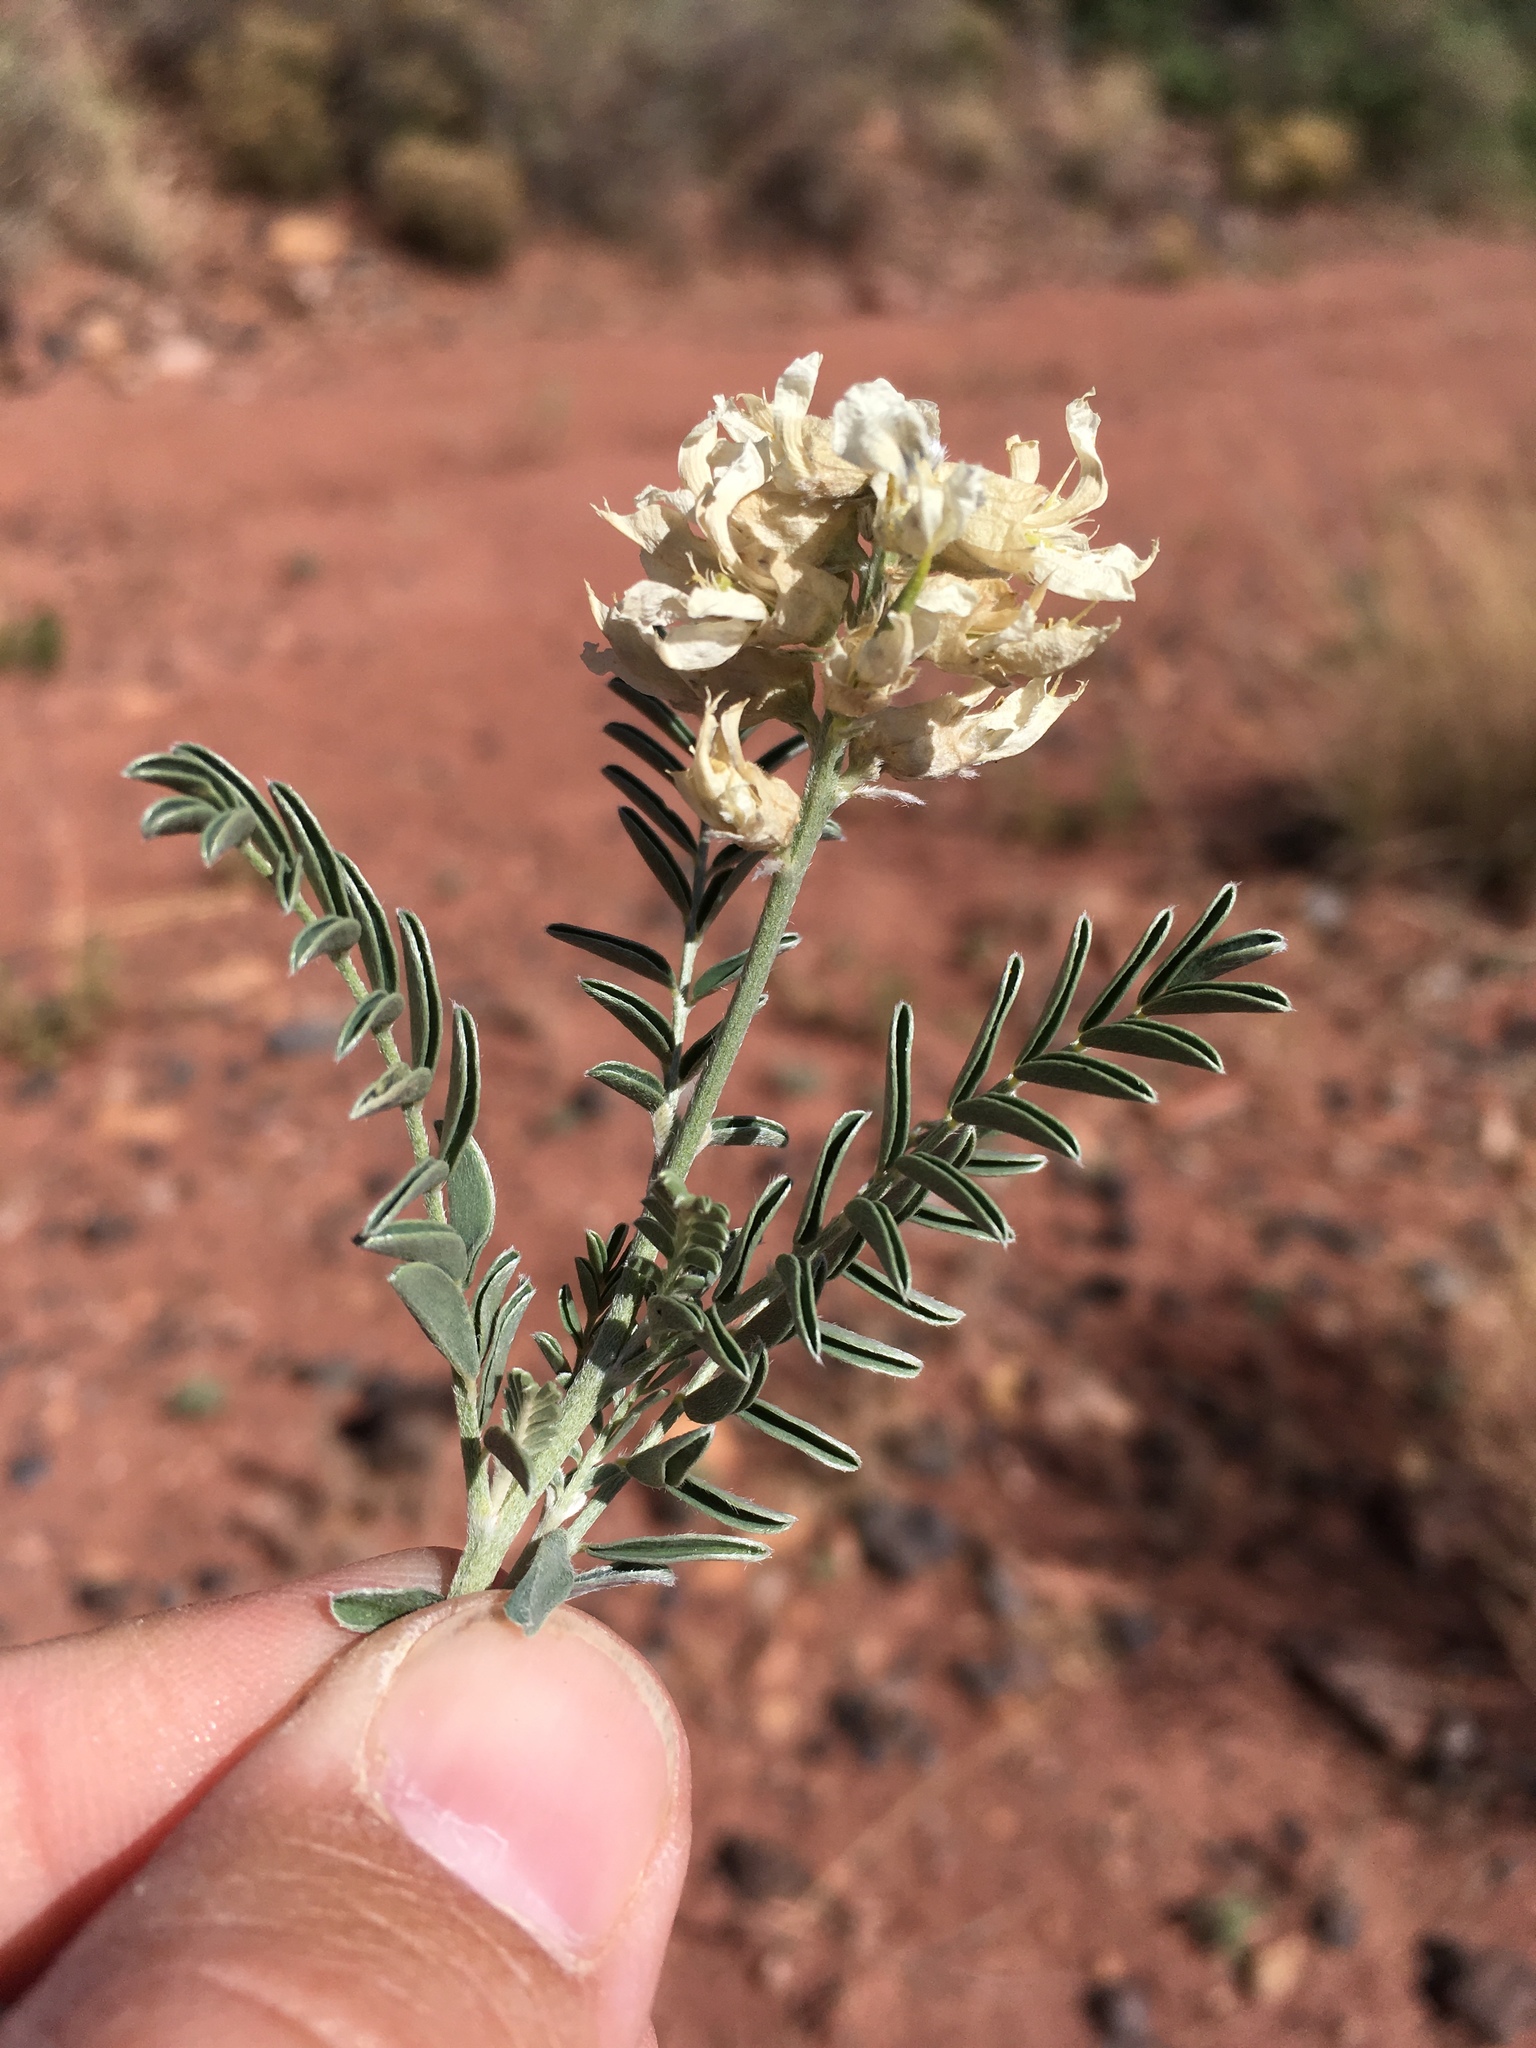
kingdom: Plantae
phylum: Tracheophyta
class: Magnoliopsida
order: Fabales
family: Fabaceae
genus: Sophora
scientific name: Sophora nuttalliana
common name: Silky sophora
